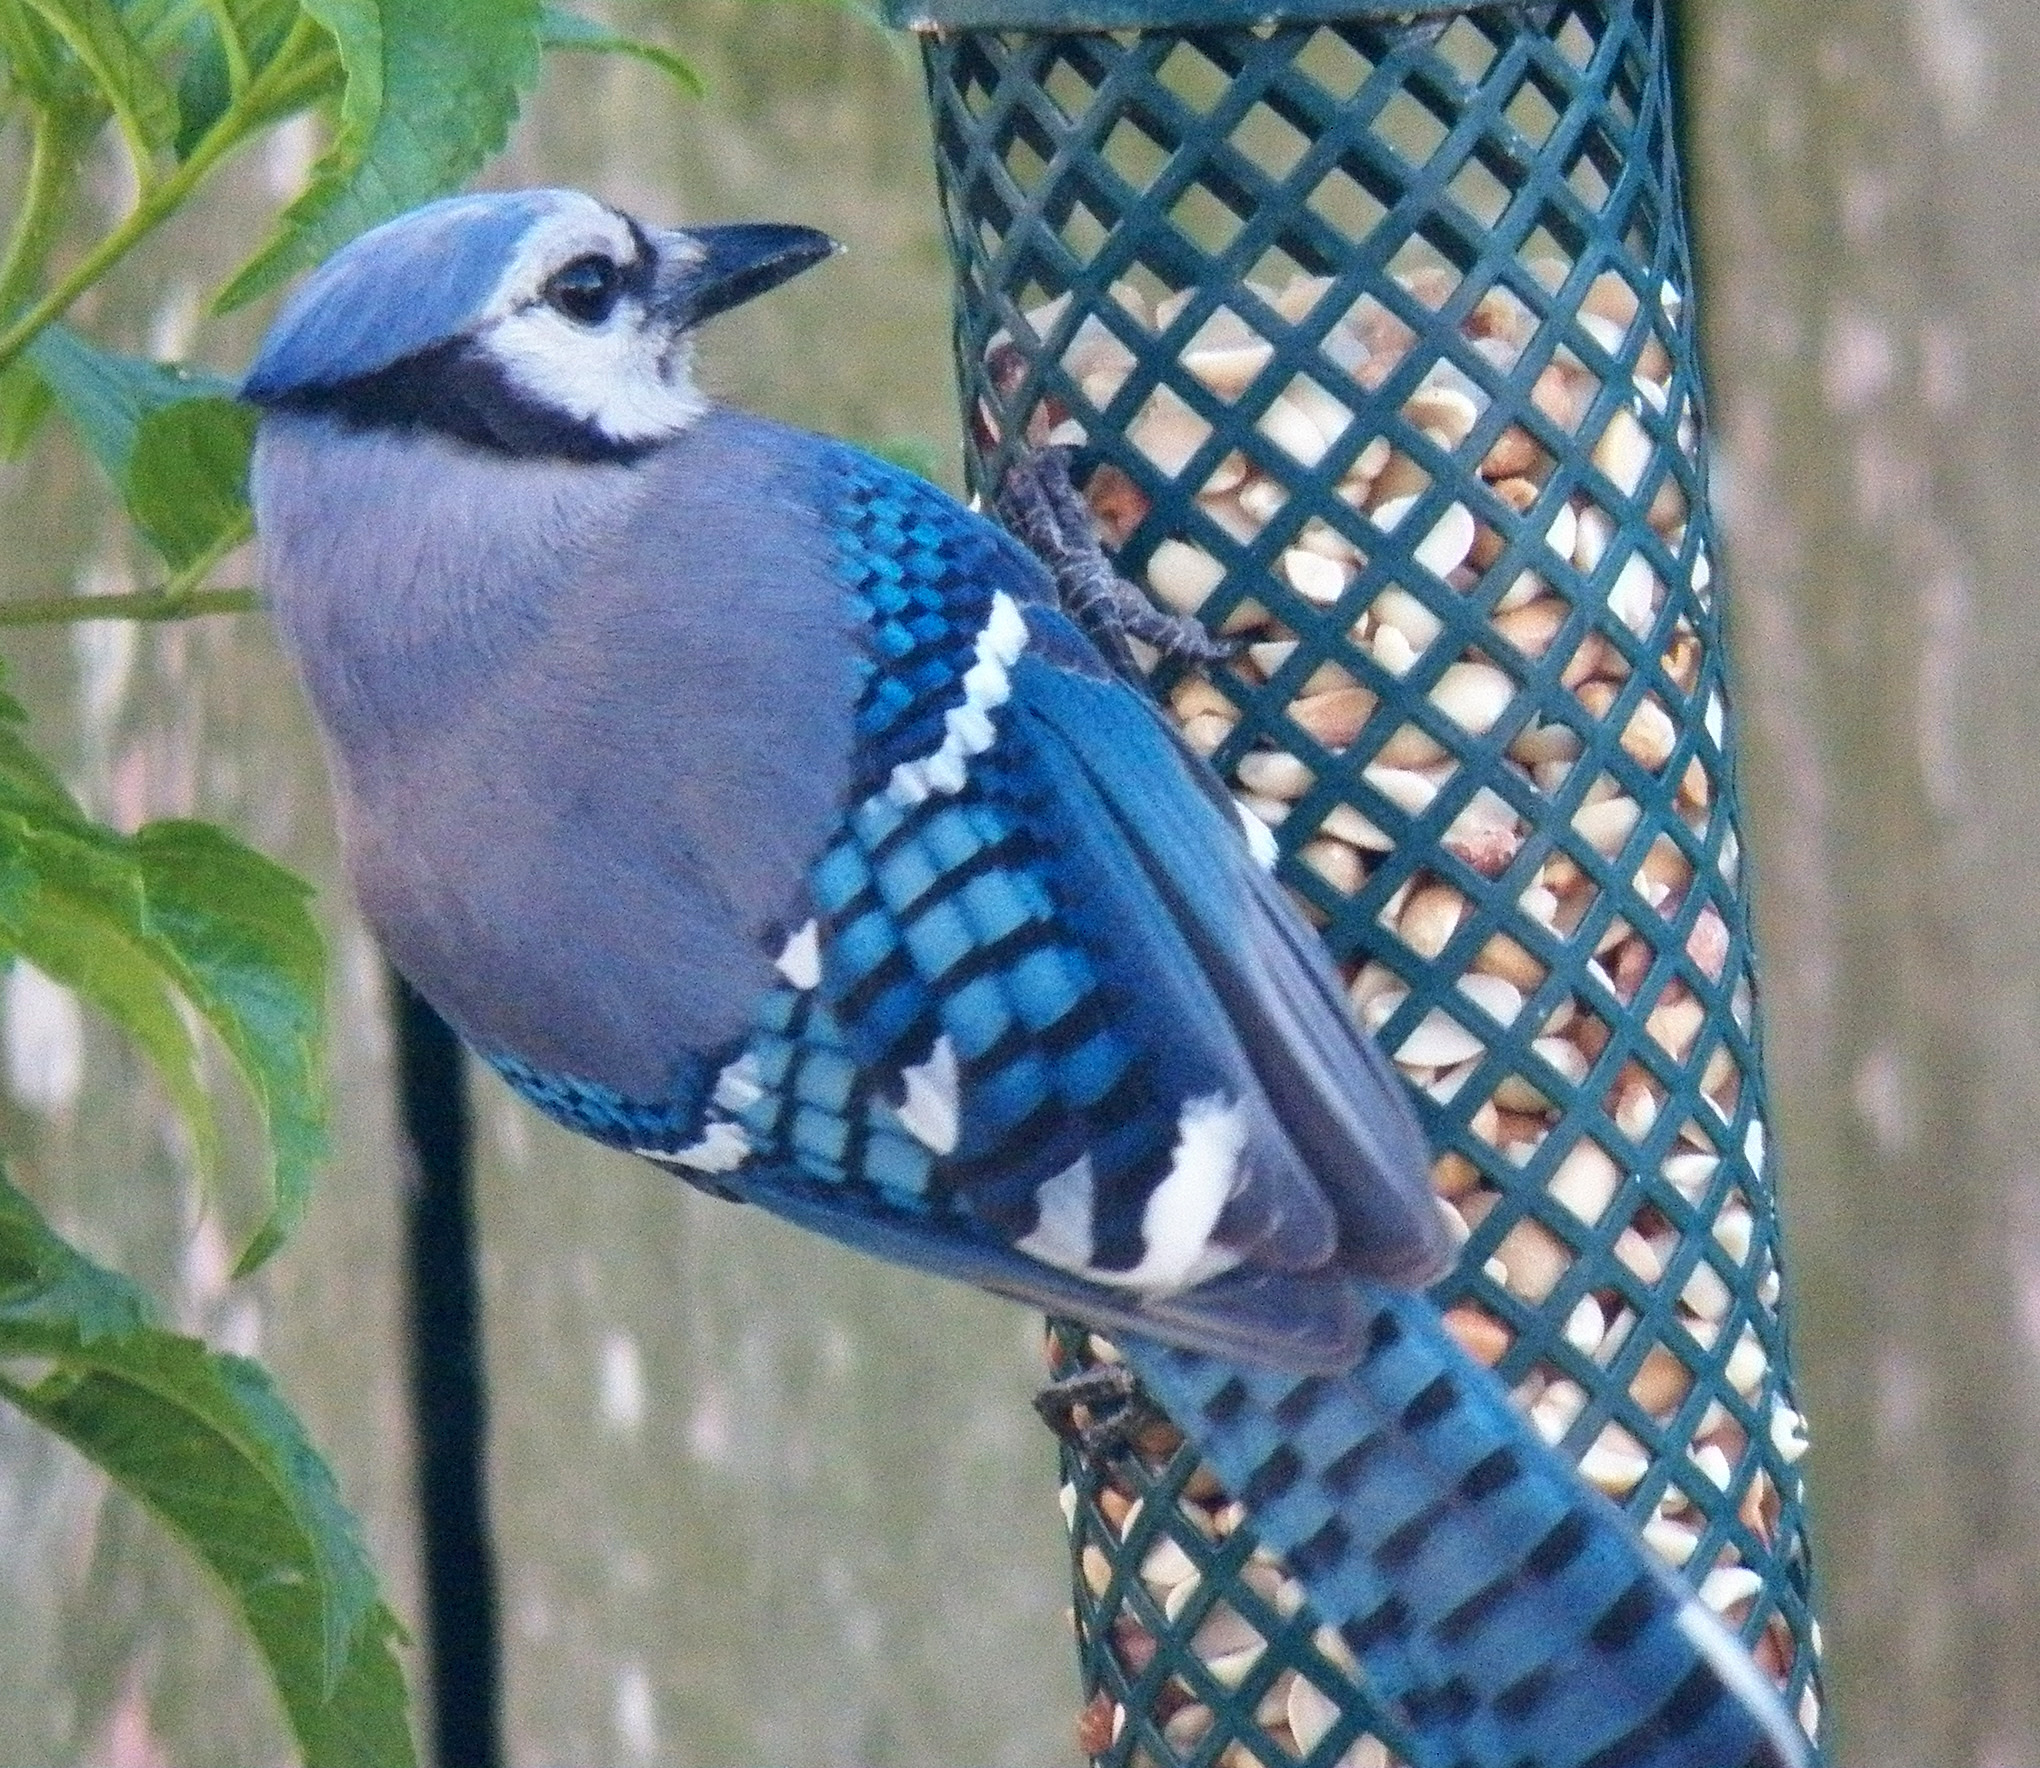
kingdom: Animalia
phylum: Chordata
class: Aves
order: Passeriformes
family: Corvidae
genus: Cyanocitta
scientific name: Cyanocitta cristata
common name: Blue jay
